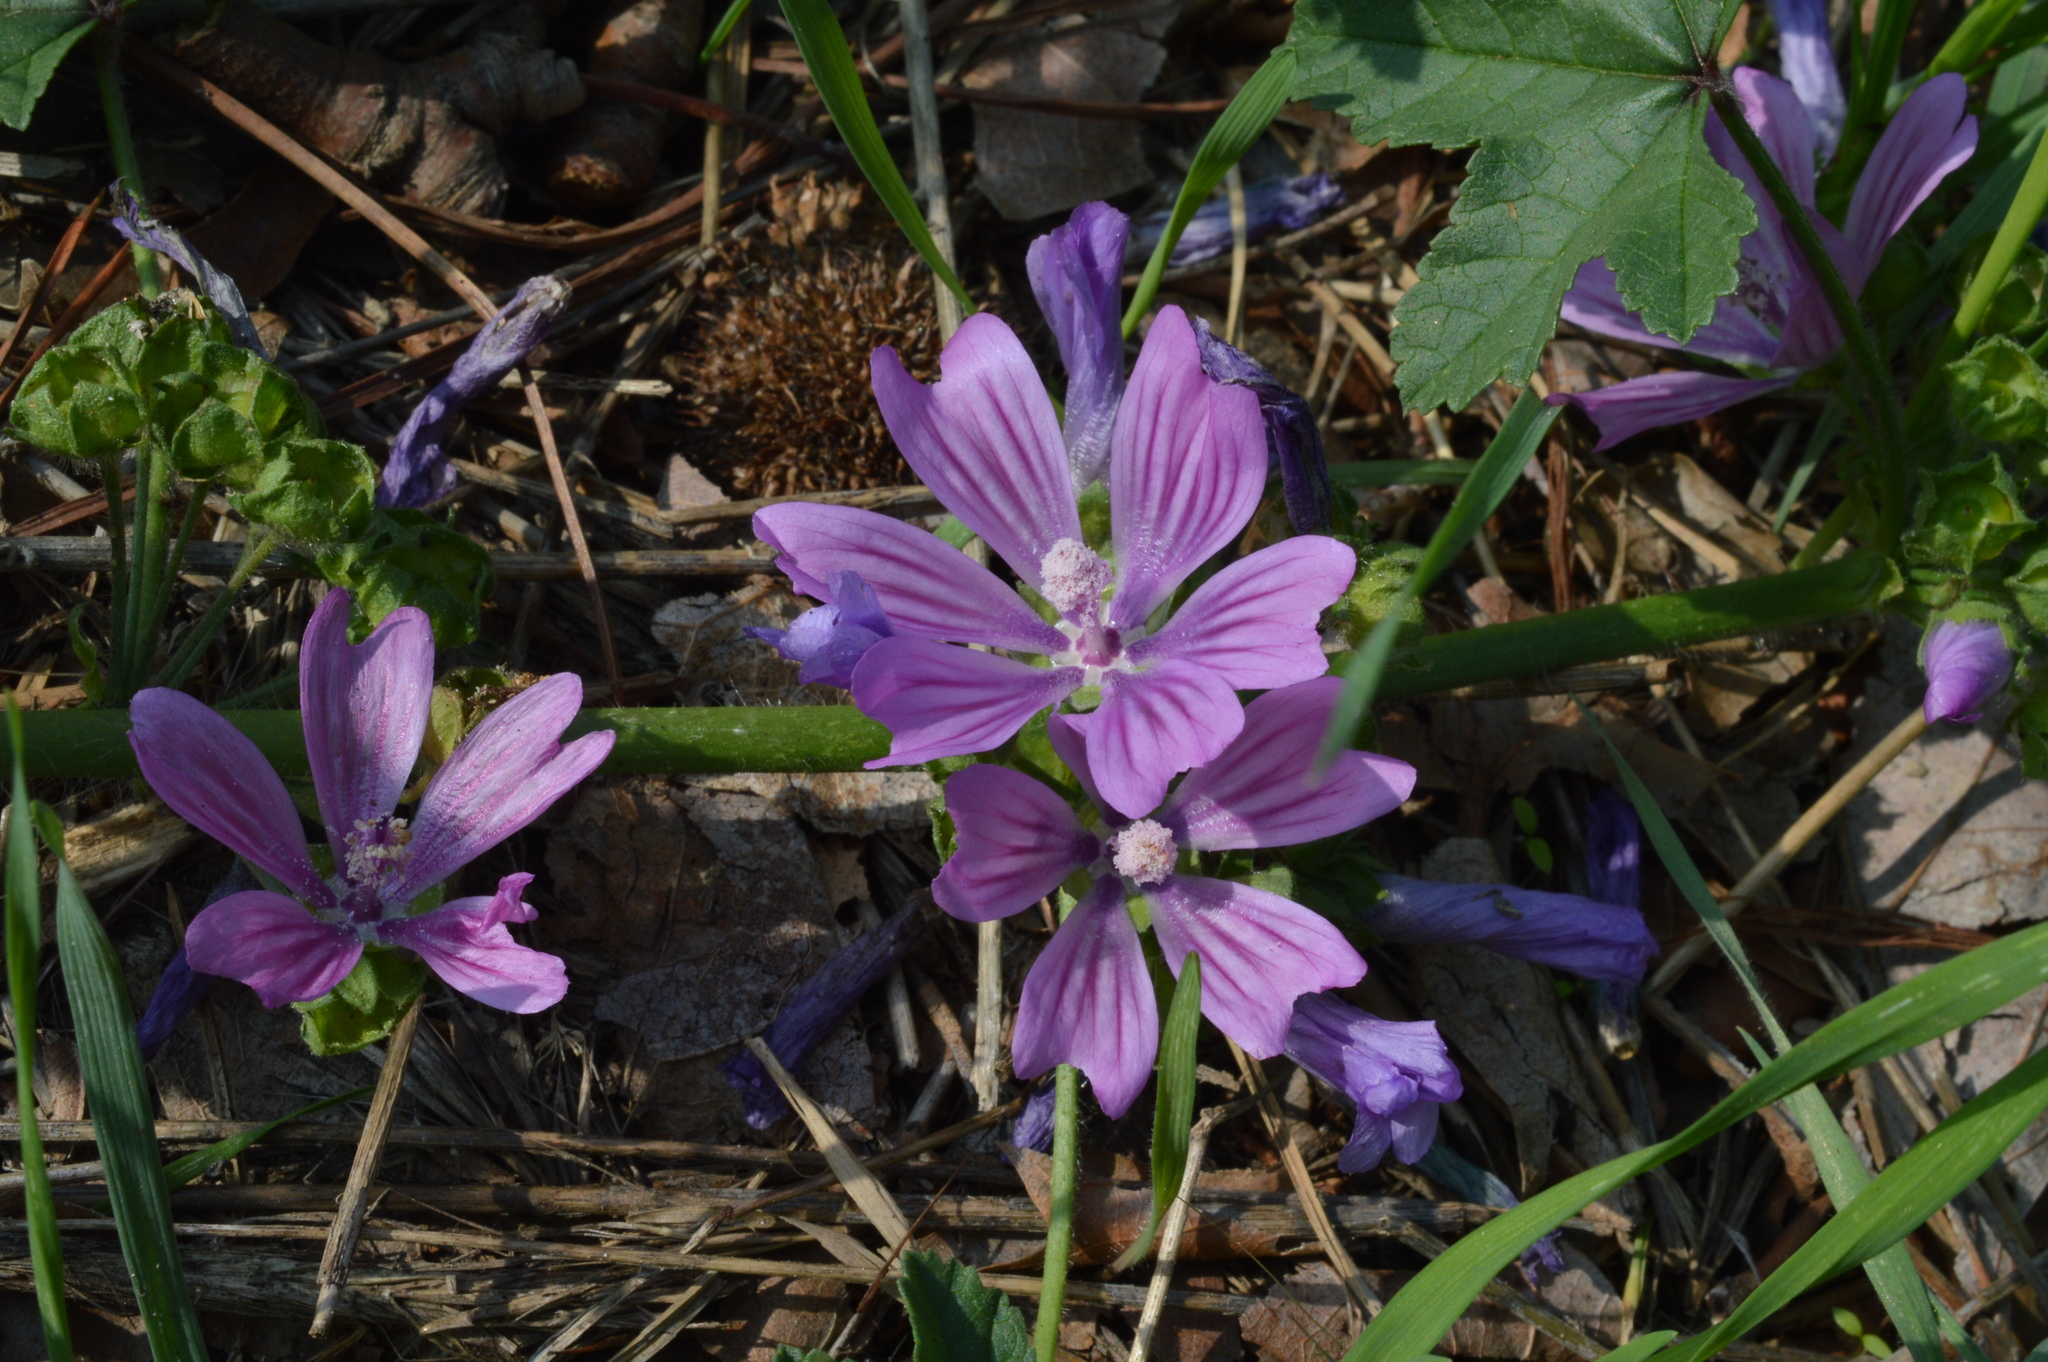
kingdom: Plantae
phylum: Tracheophyta
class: Magnoliopsida
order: Malvales
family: Malvaceae
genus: Malva
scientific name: Malva sylvestris
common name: Common mallow
